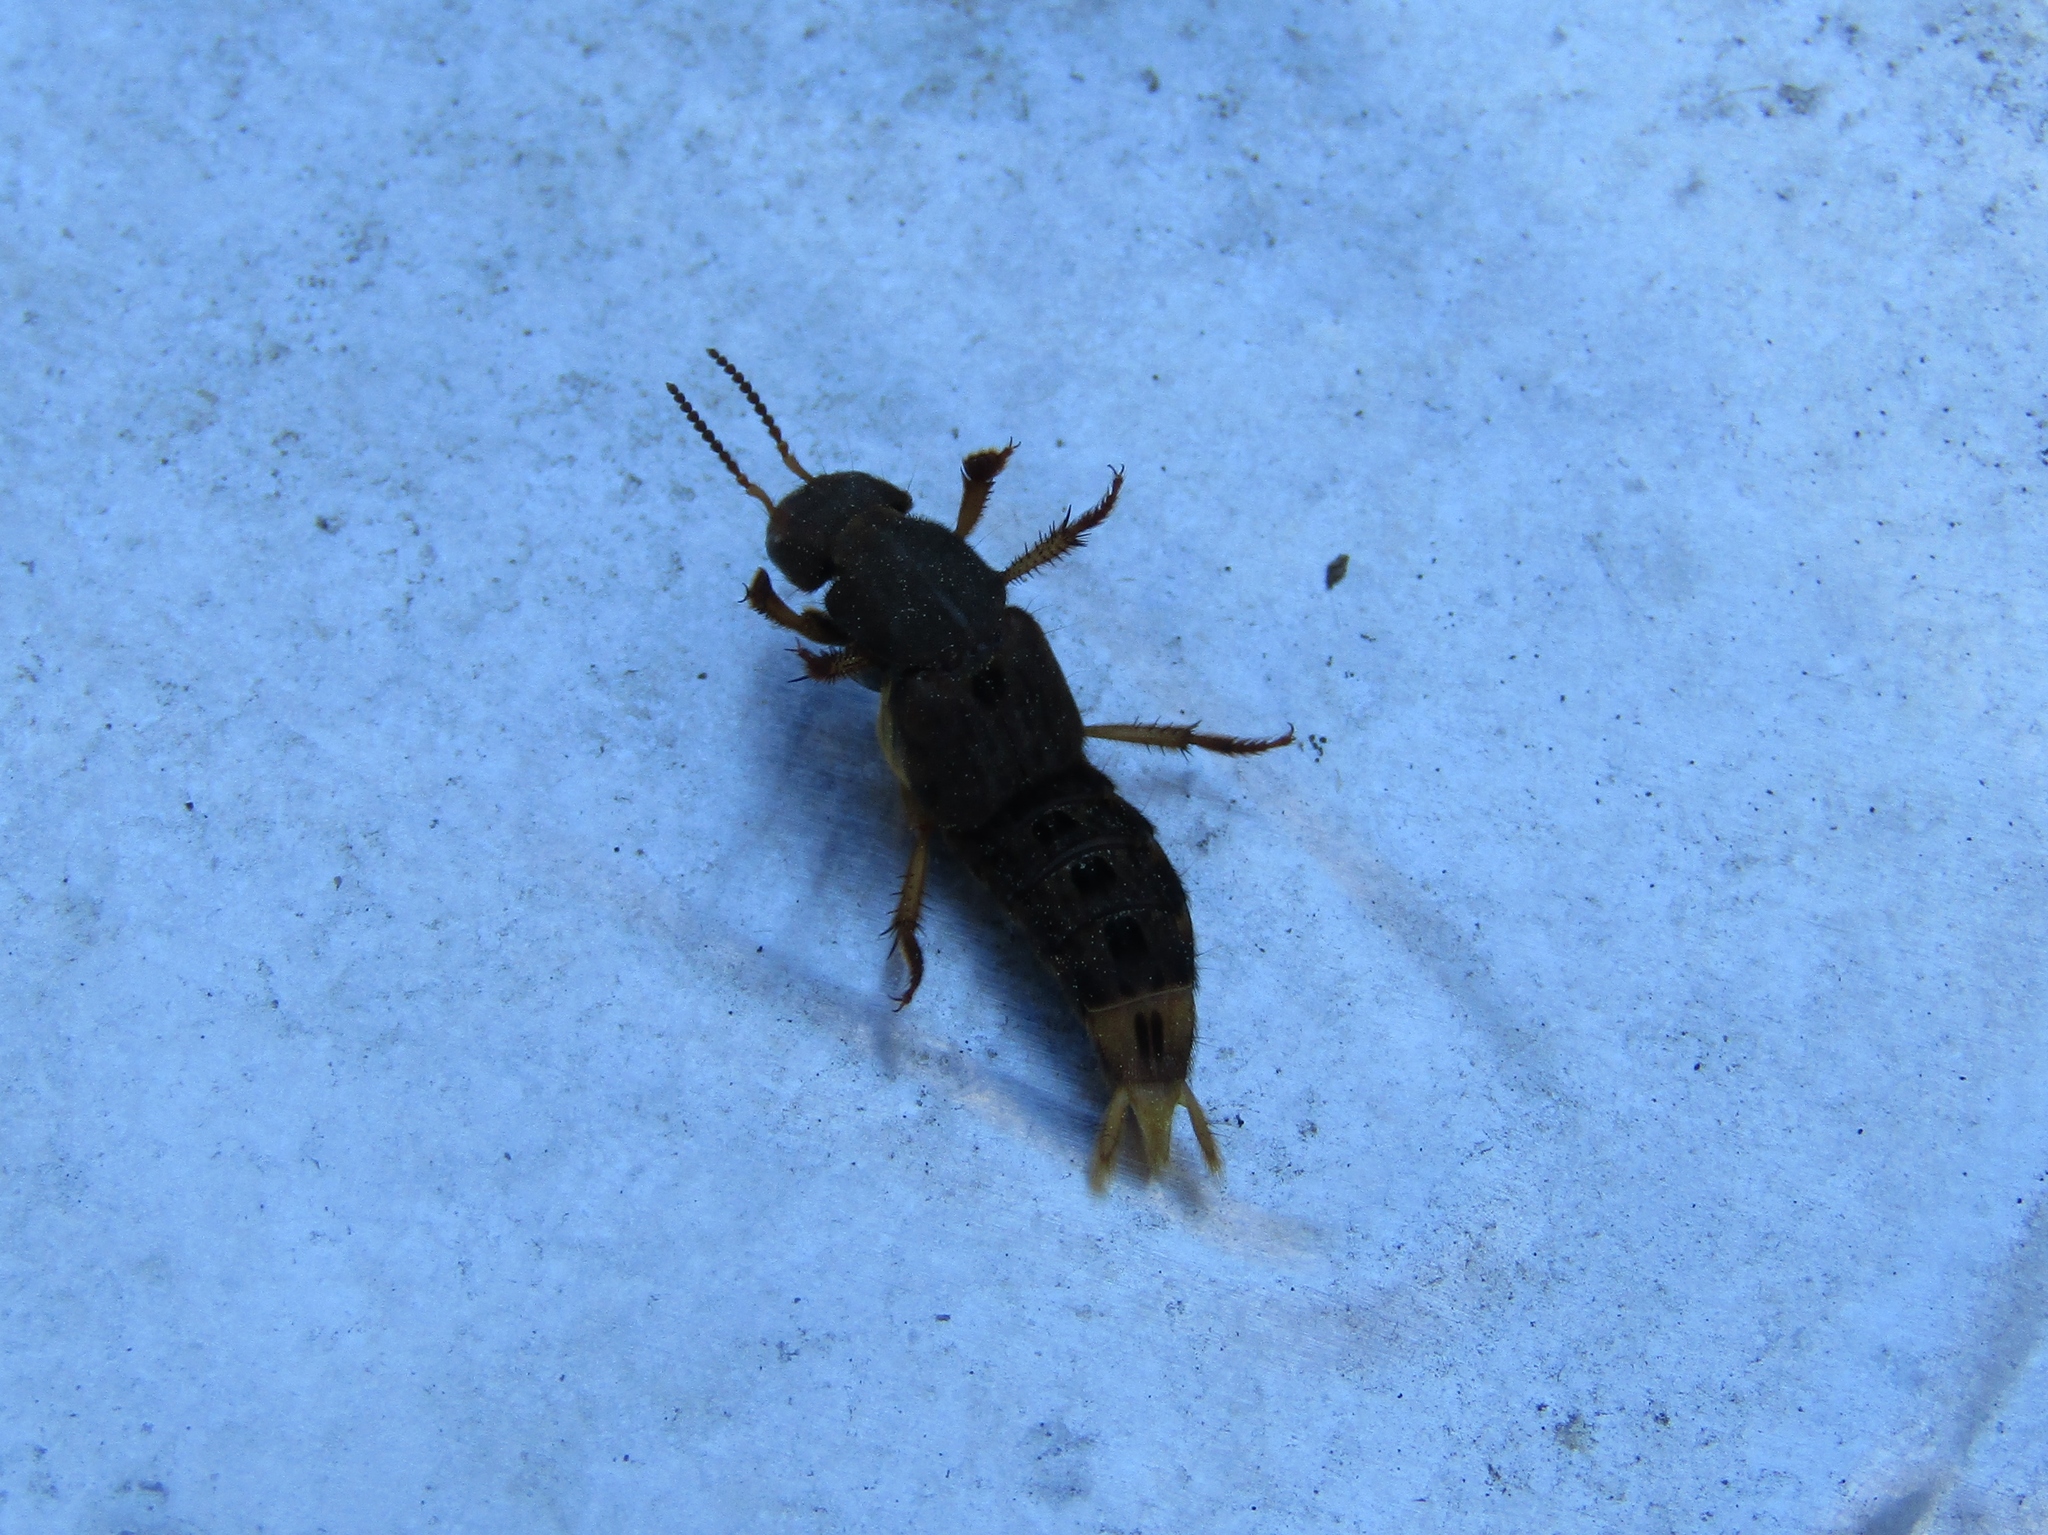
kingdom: Animalia
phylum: Arthropoda
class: Insecta
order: Coleoptera
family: Staphylinidae
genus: Platydracus
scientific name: Platydracus maculosus
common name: Brown rove beetle
